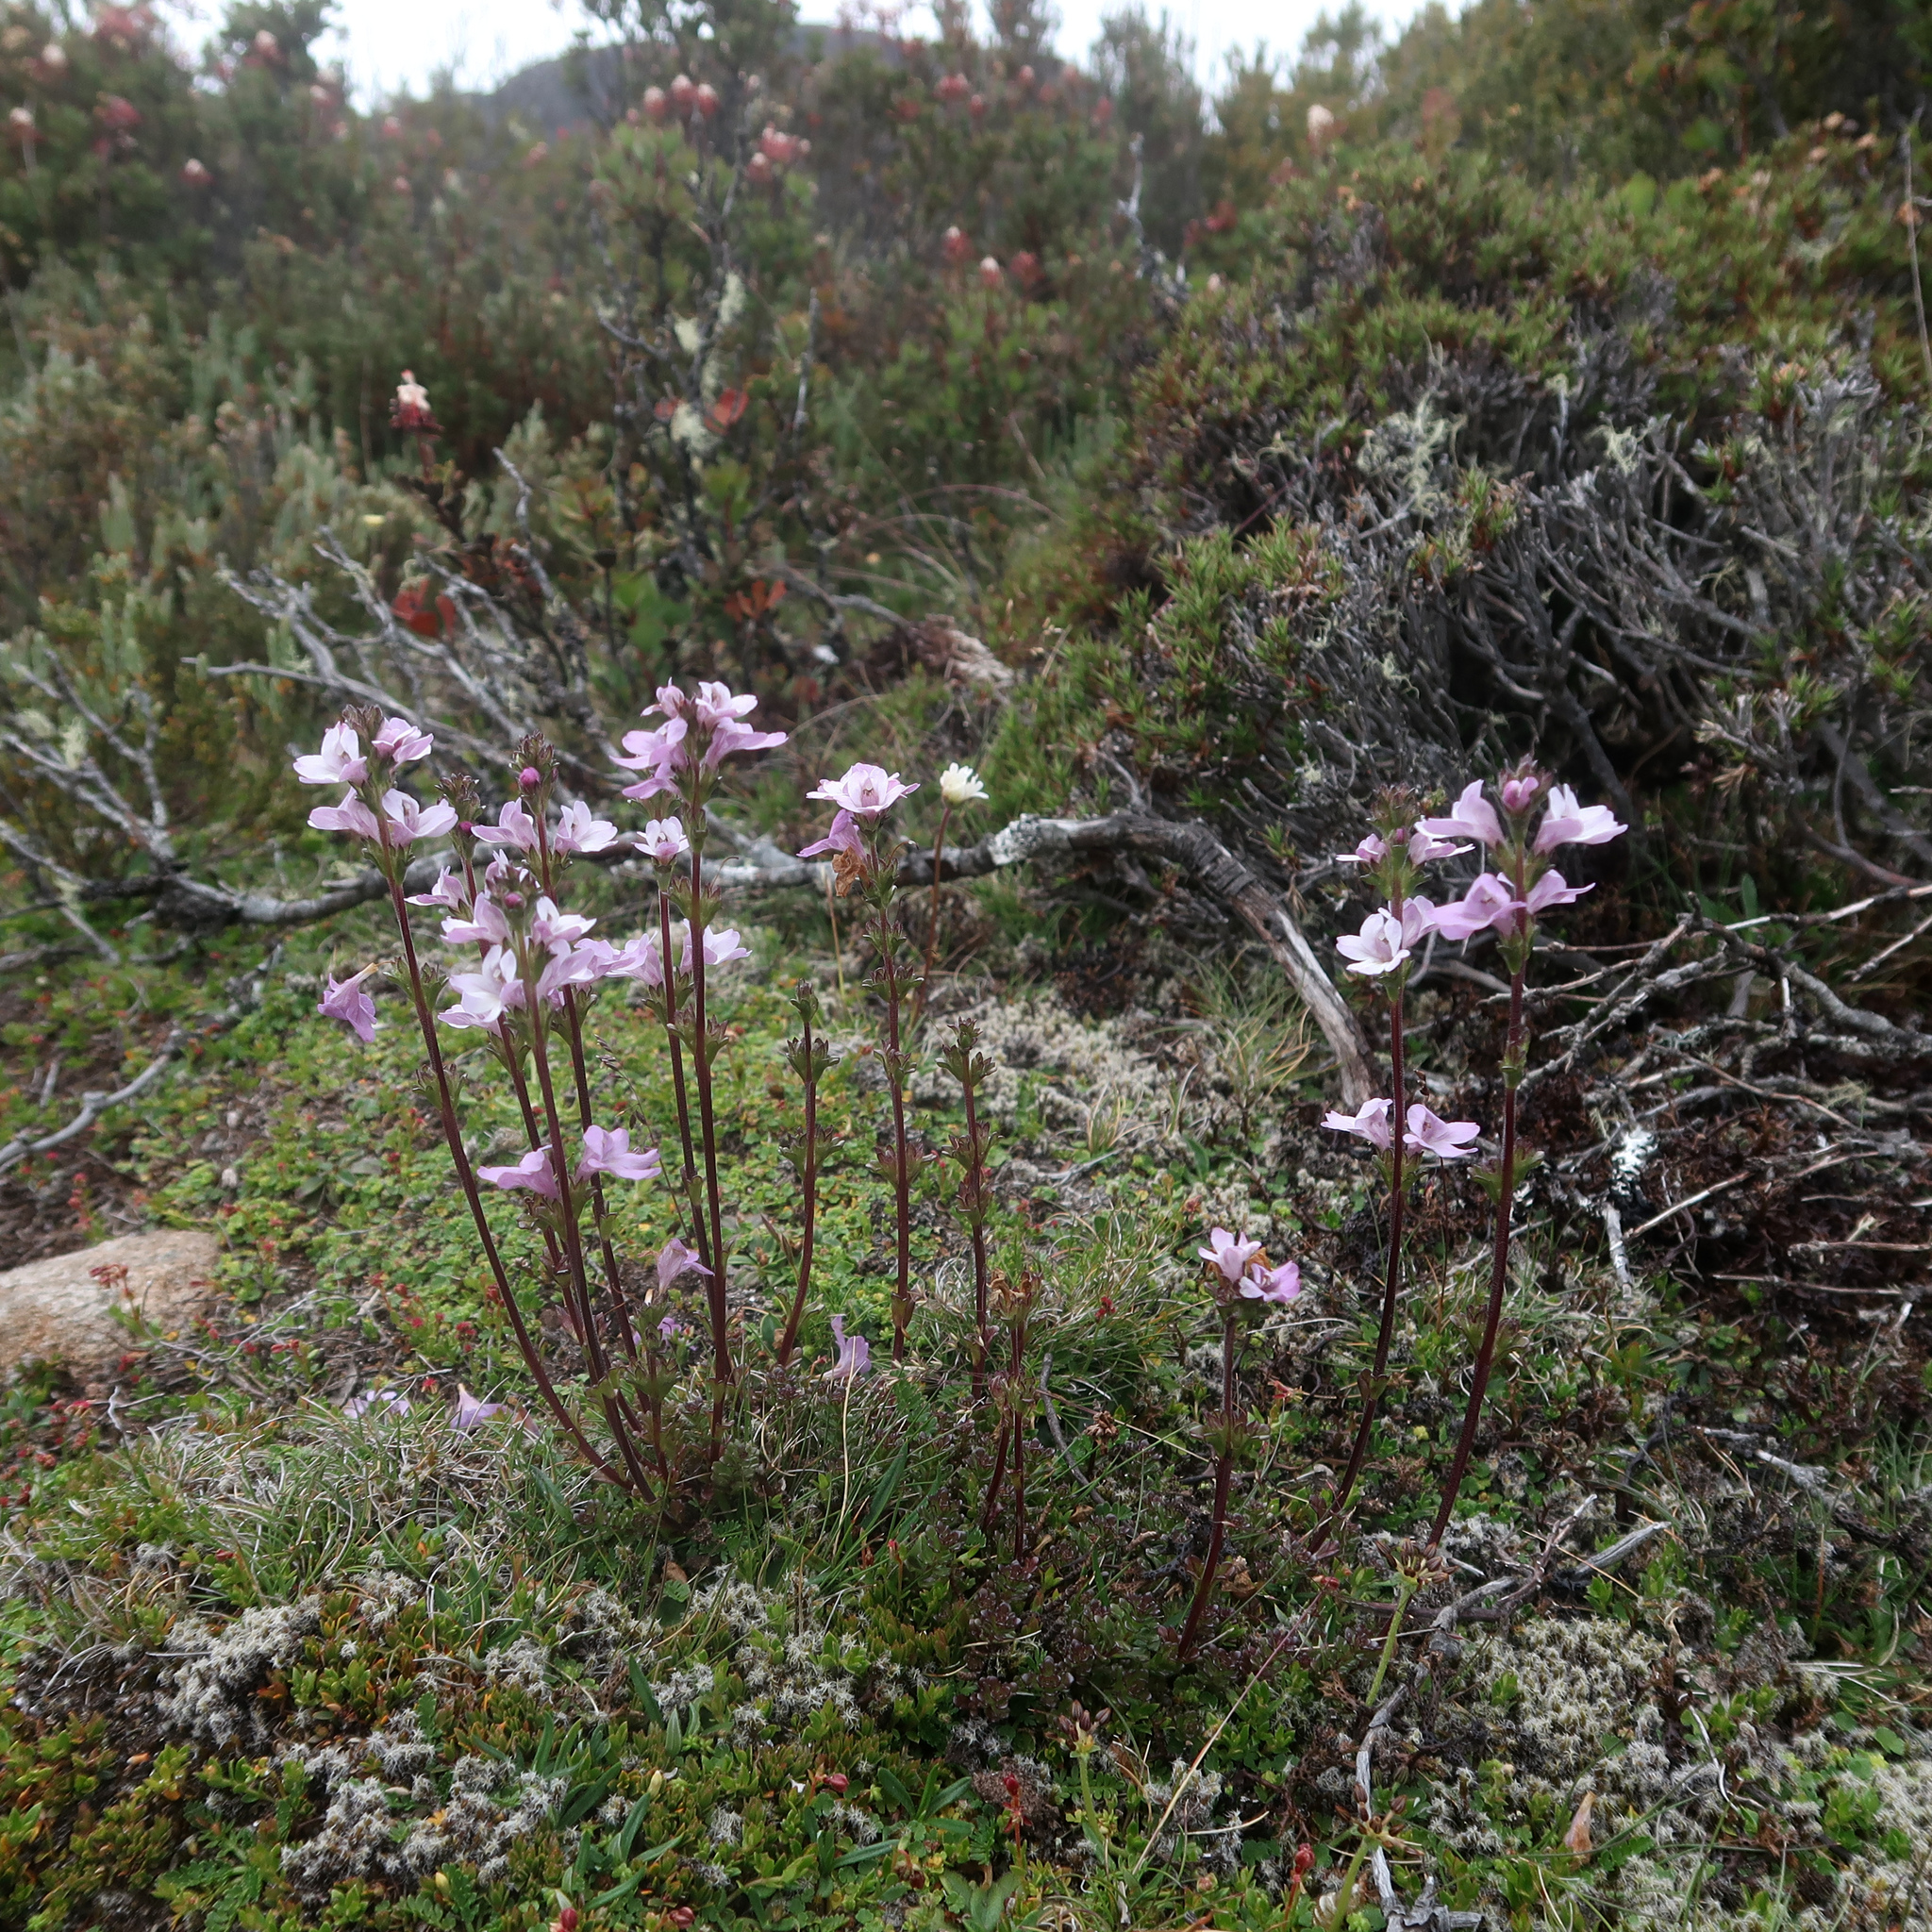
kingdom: Plantae
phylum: Tracheophyta
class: Magnoliopsida
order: Lamiales
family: Orobanchaceae
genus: Euphrasia
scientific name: Euphrasia collina
